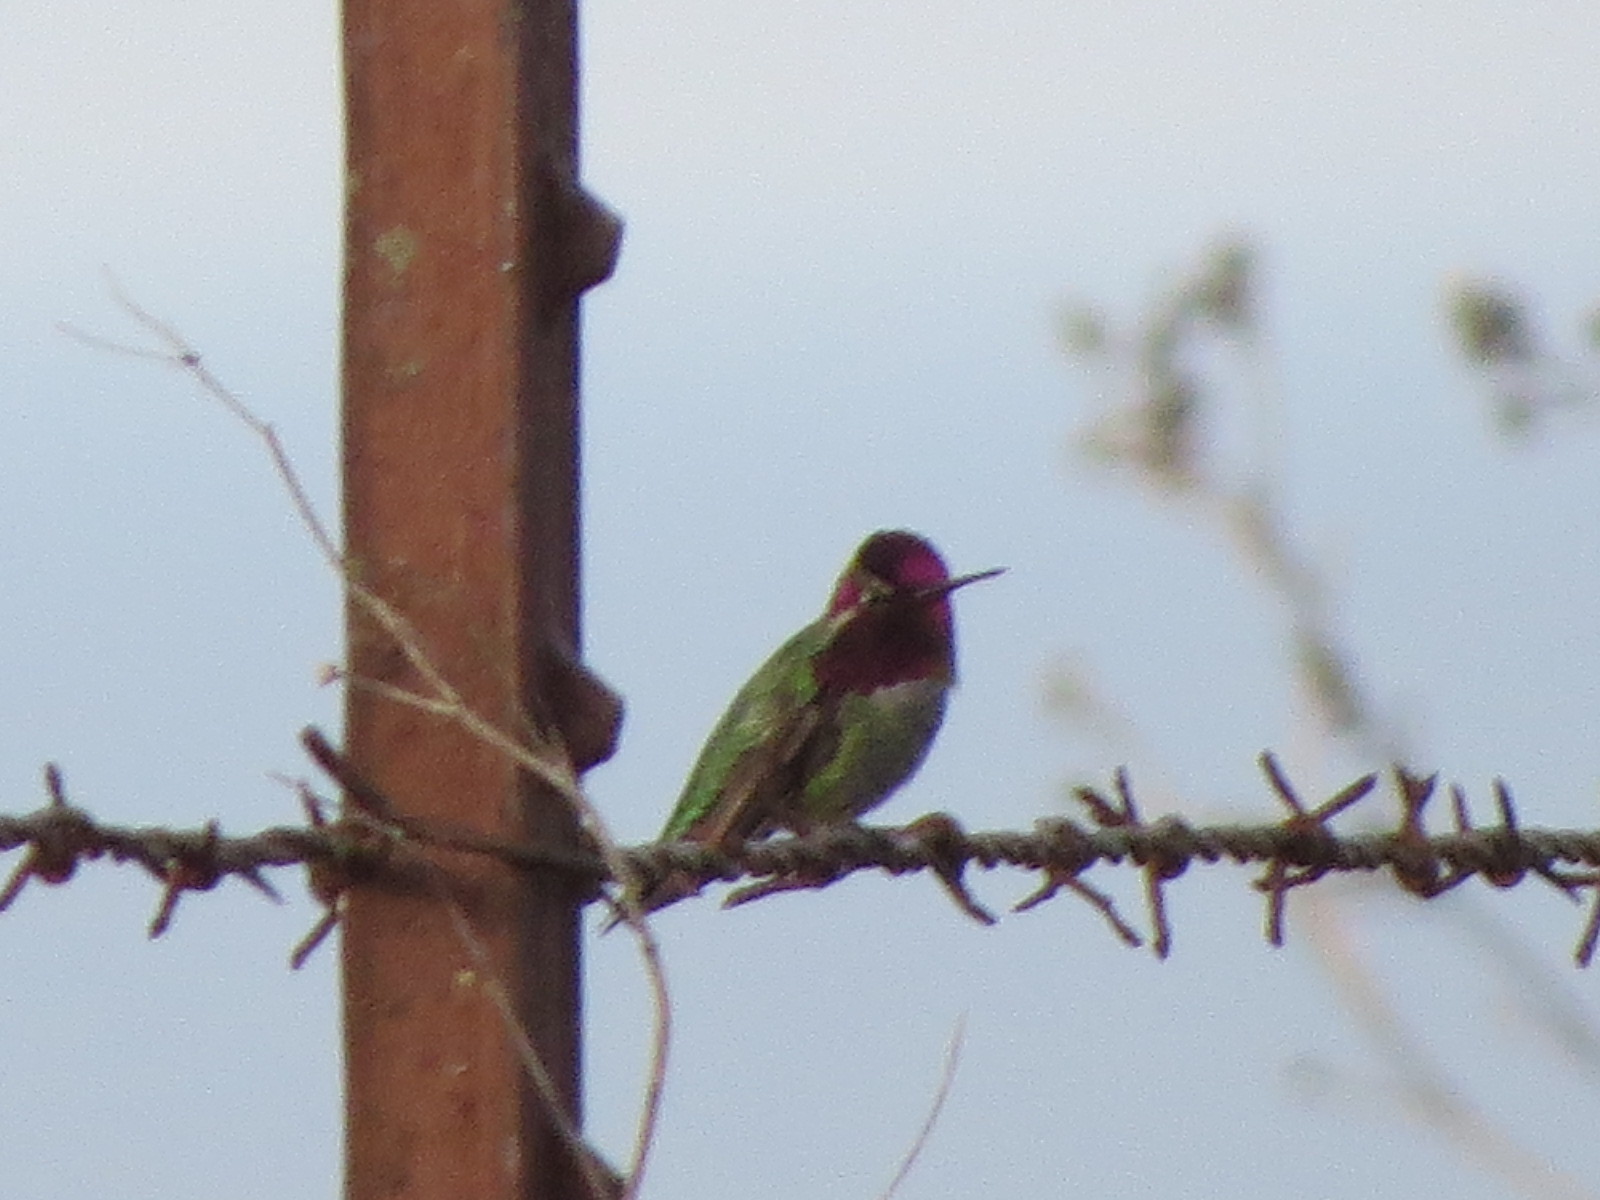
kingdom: Animalia
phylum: Chordata
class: Aves
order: Apodiformes
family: Trochilidae
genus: Calypte
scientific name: Calypte anna
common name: Anna's hummingbird
